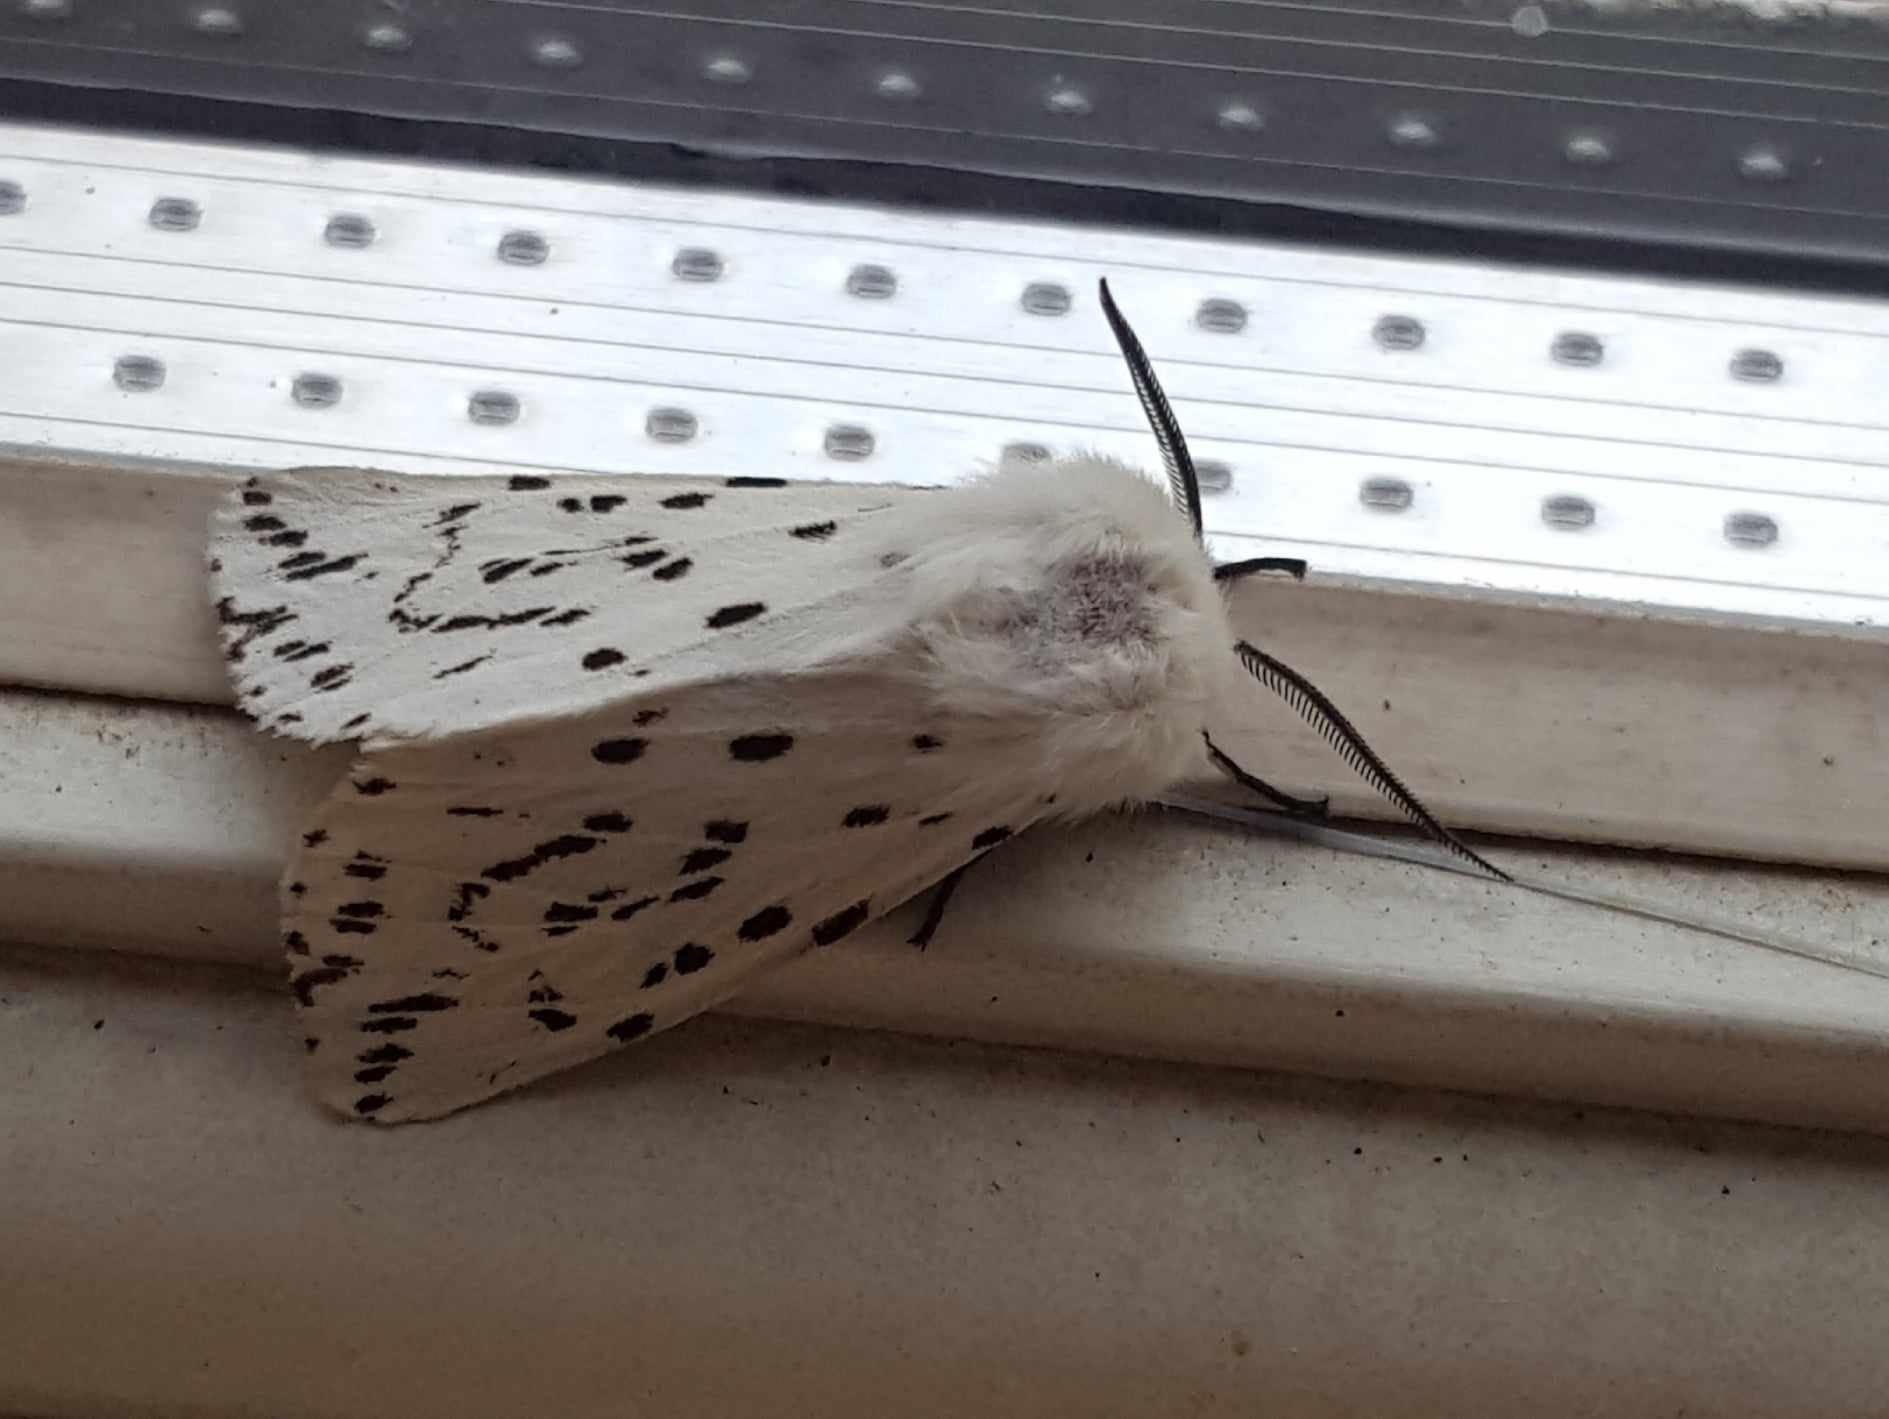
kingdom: Animalia
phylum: Arthropoda
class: Insecta
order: Lepidoptera
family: Erebidae
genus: Spilosoma
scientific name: Spilosoma lubricipeda
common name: White ermine
